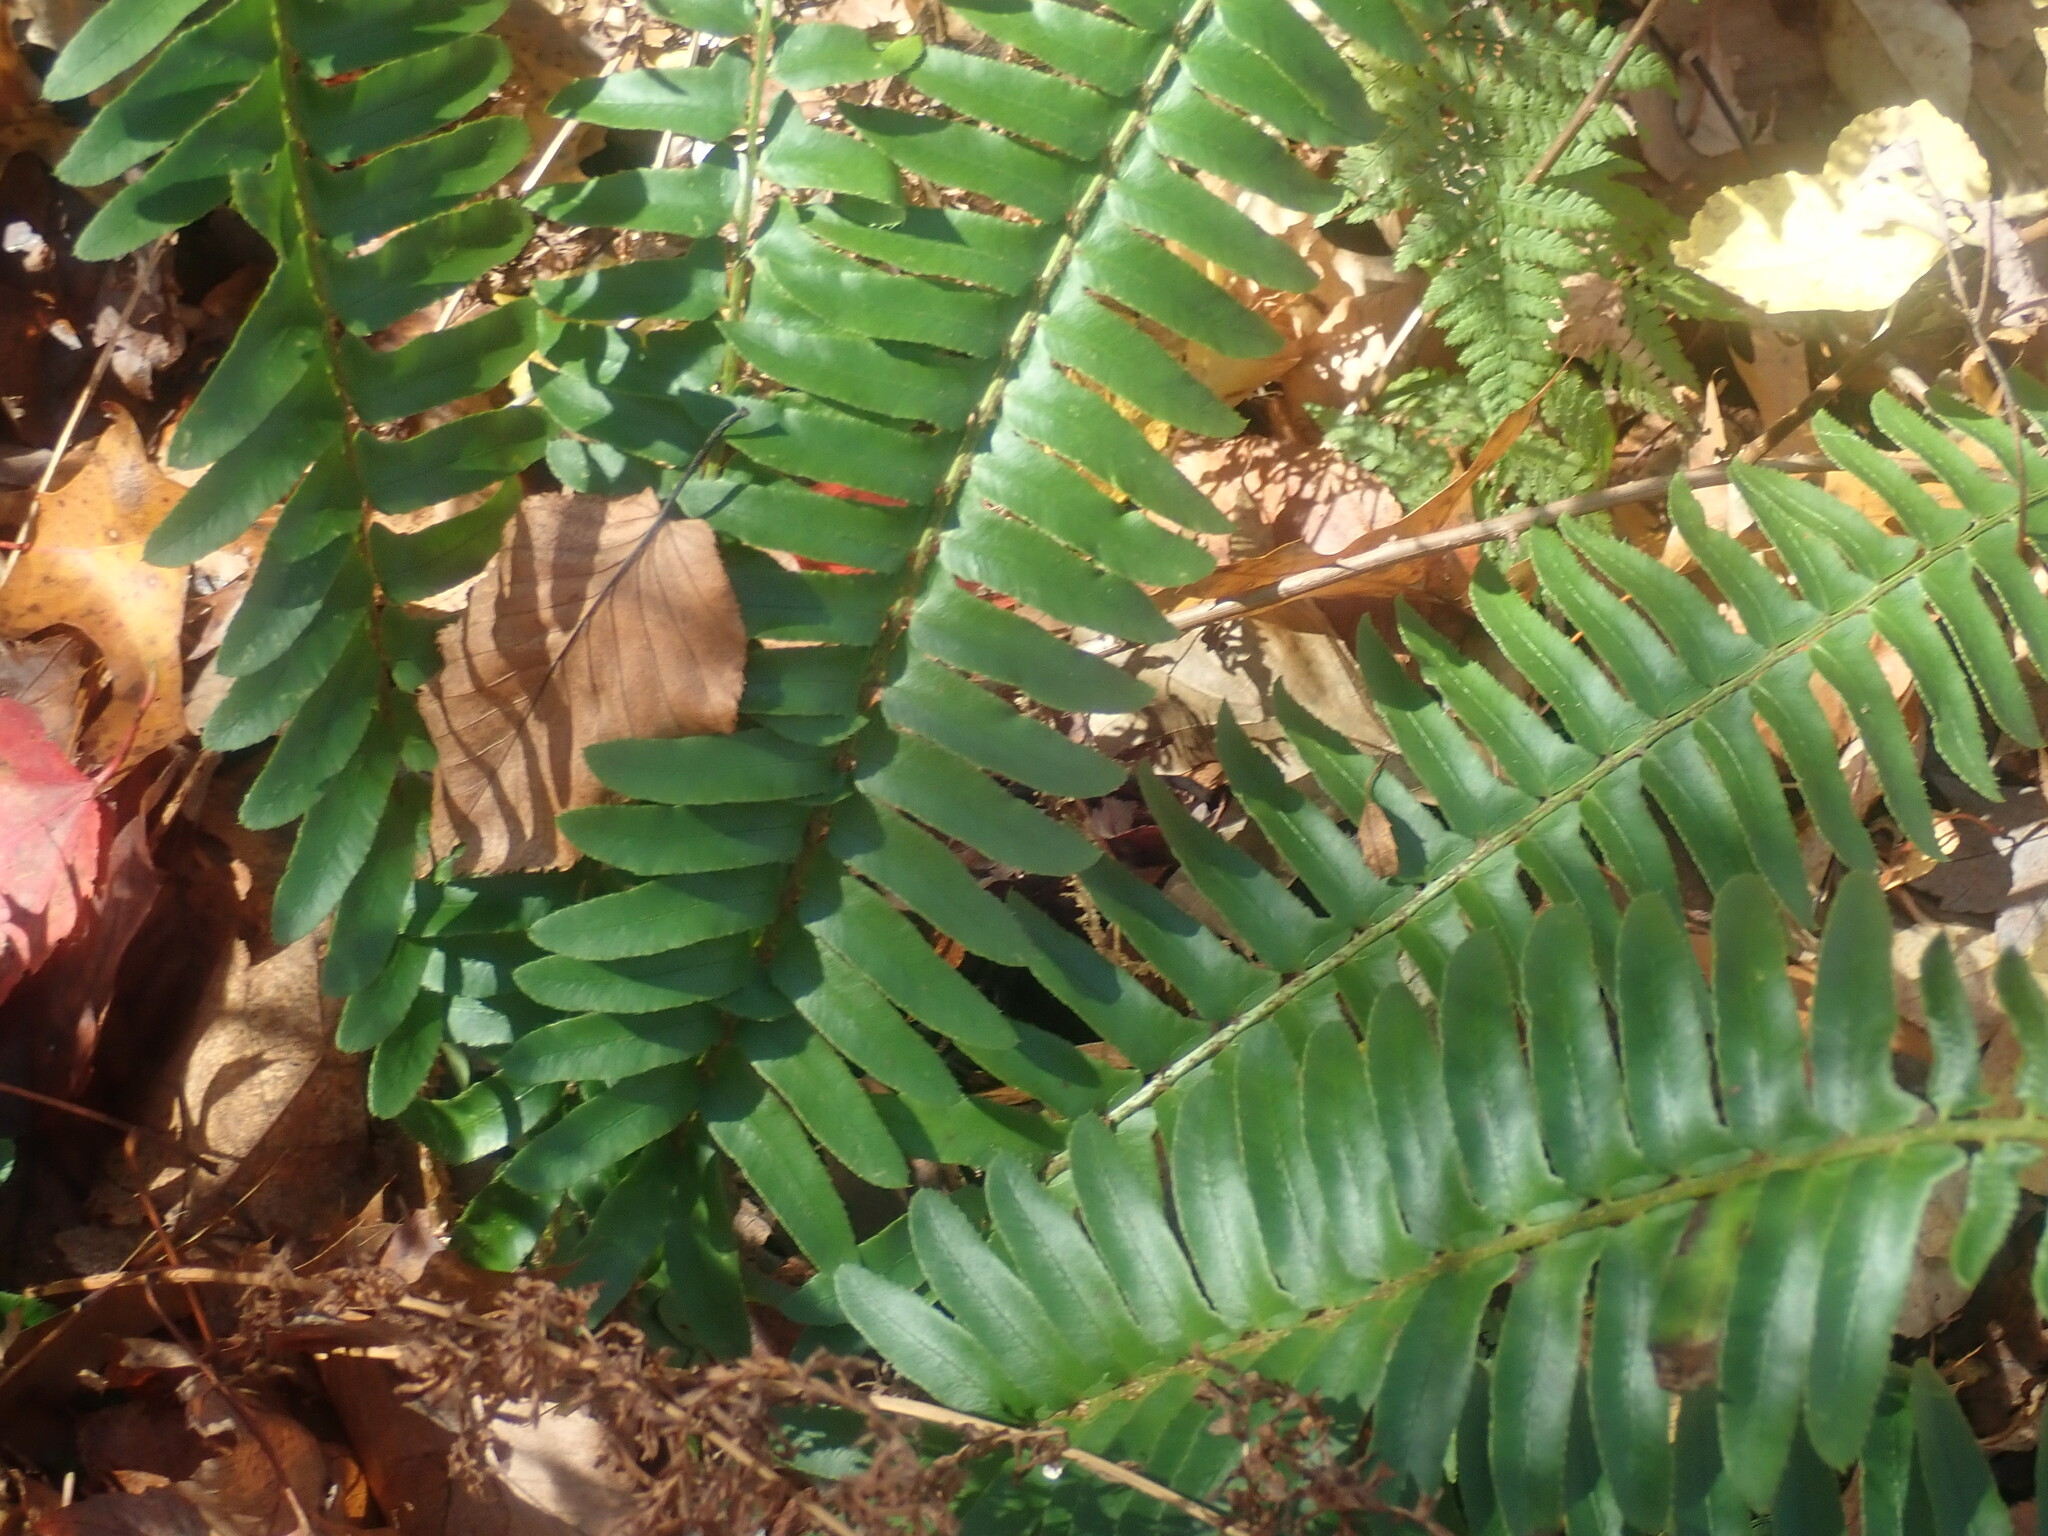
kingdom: Plantae
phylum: Tracheophyta
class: Polypodiopsida
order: Polypodiales
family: Dryopteridaceae
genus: Polystichum
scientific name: Polystichum acrostichoides
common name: Christmas fern
